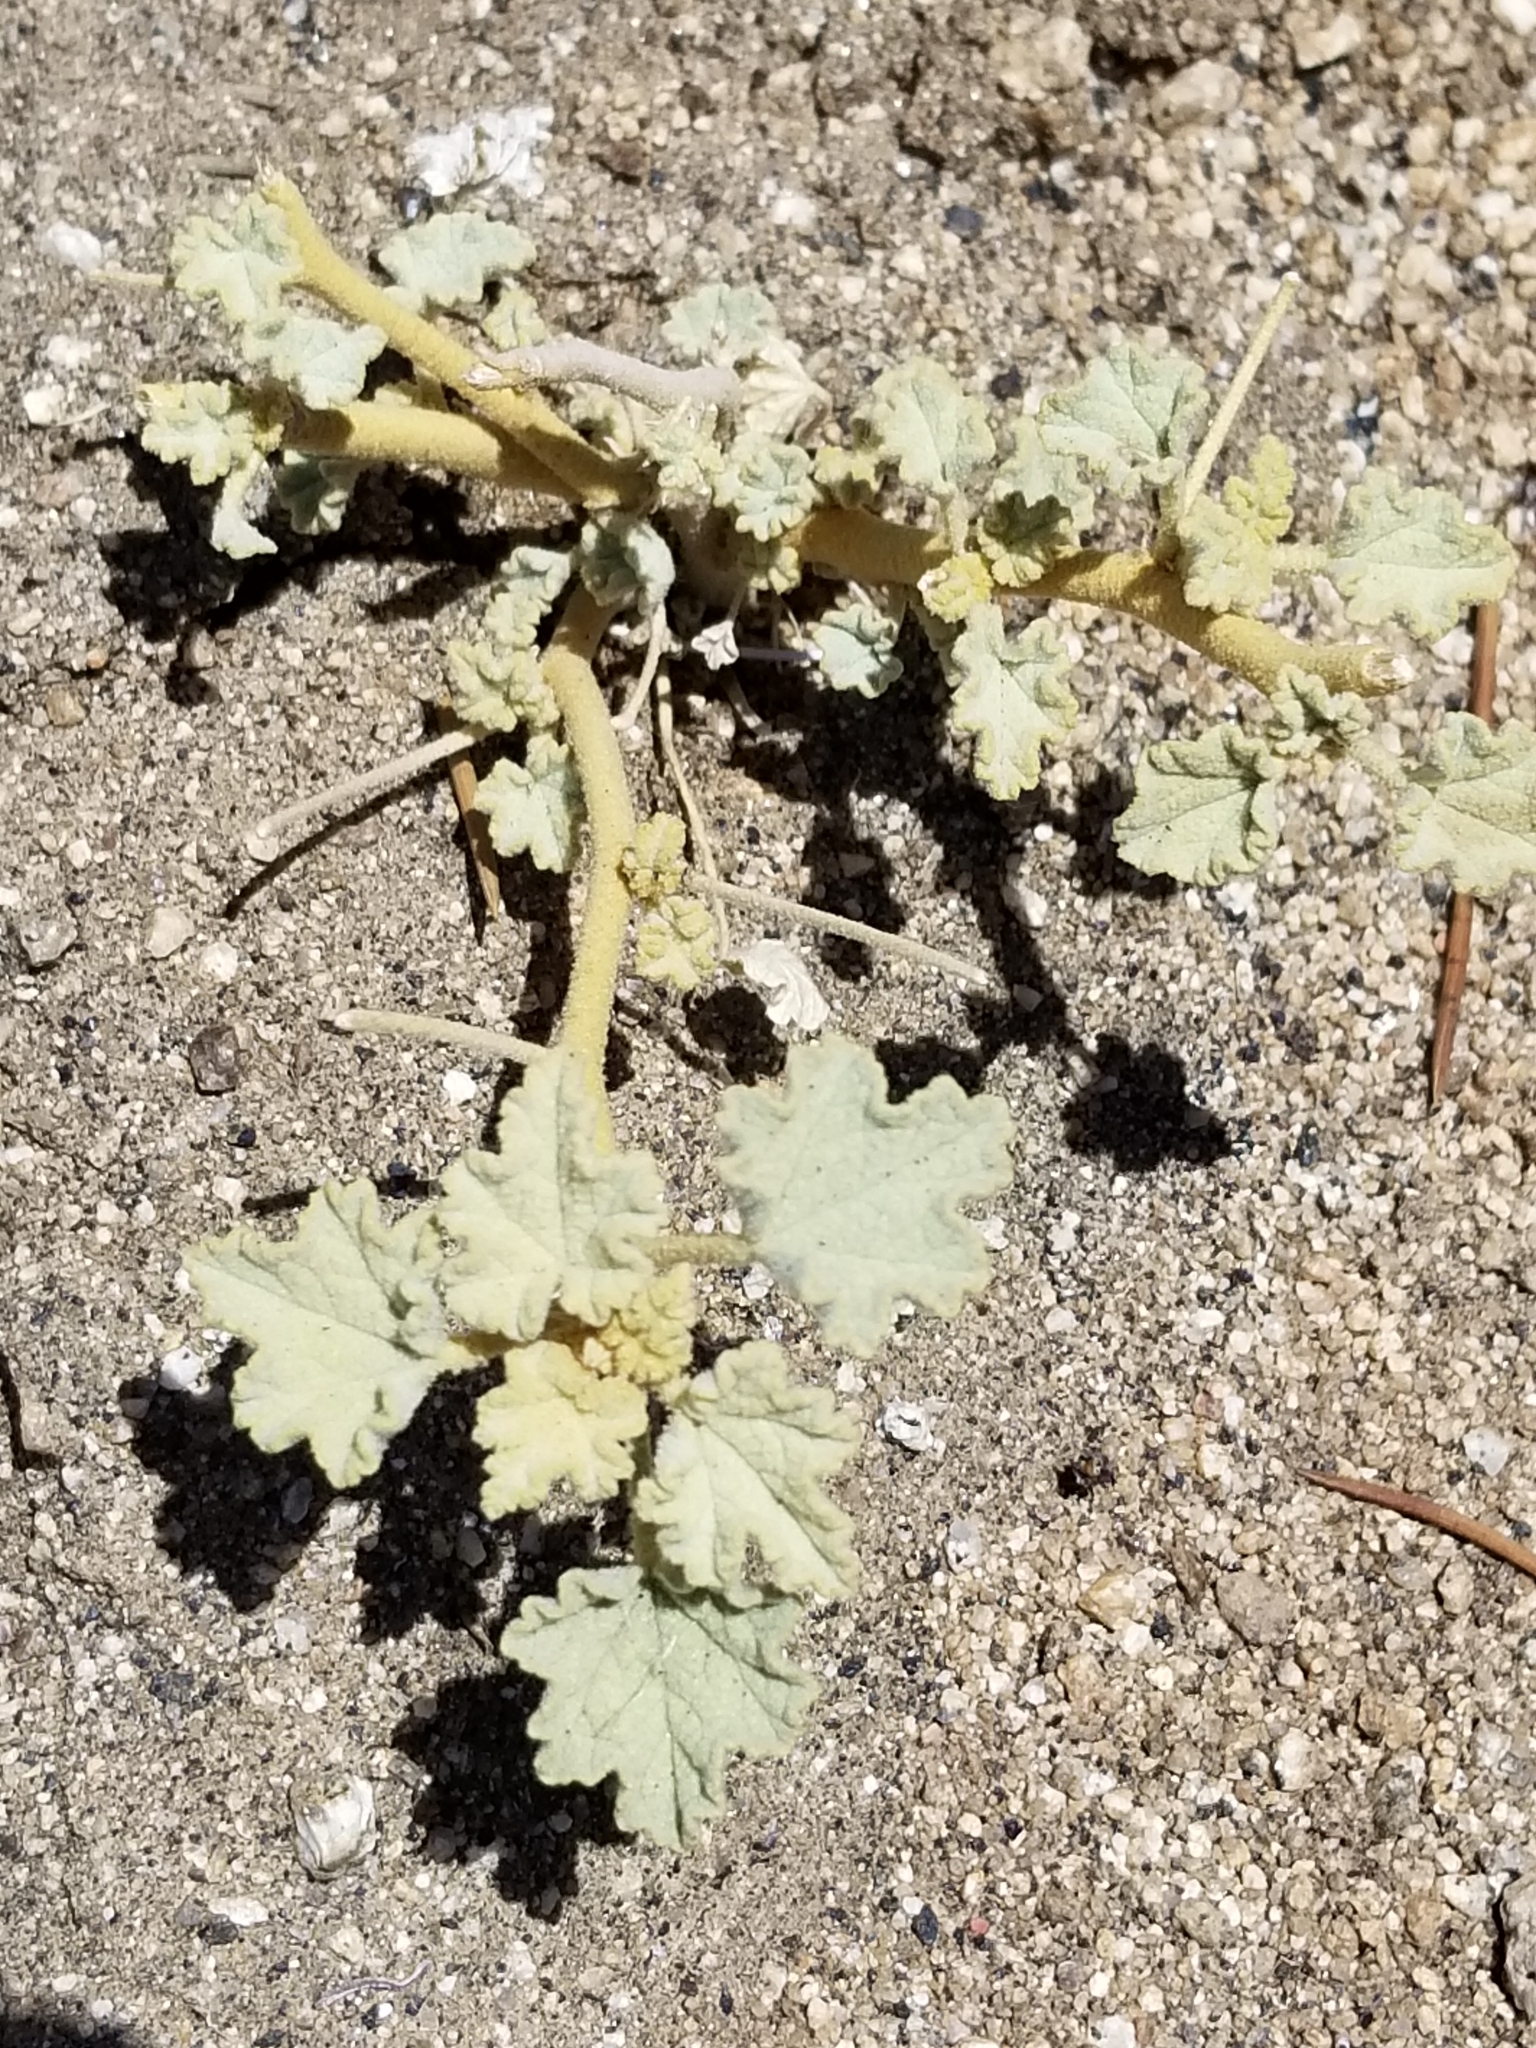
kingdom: Plantae
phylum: Tracheophyta
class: Magnoliopsida
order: Malvales
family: Malvaceae
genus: Sphaeralcea
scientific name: Sphaeralcea ambigua
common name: Apricot globe-mallow
